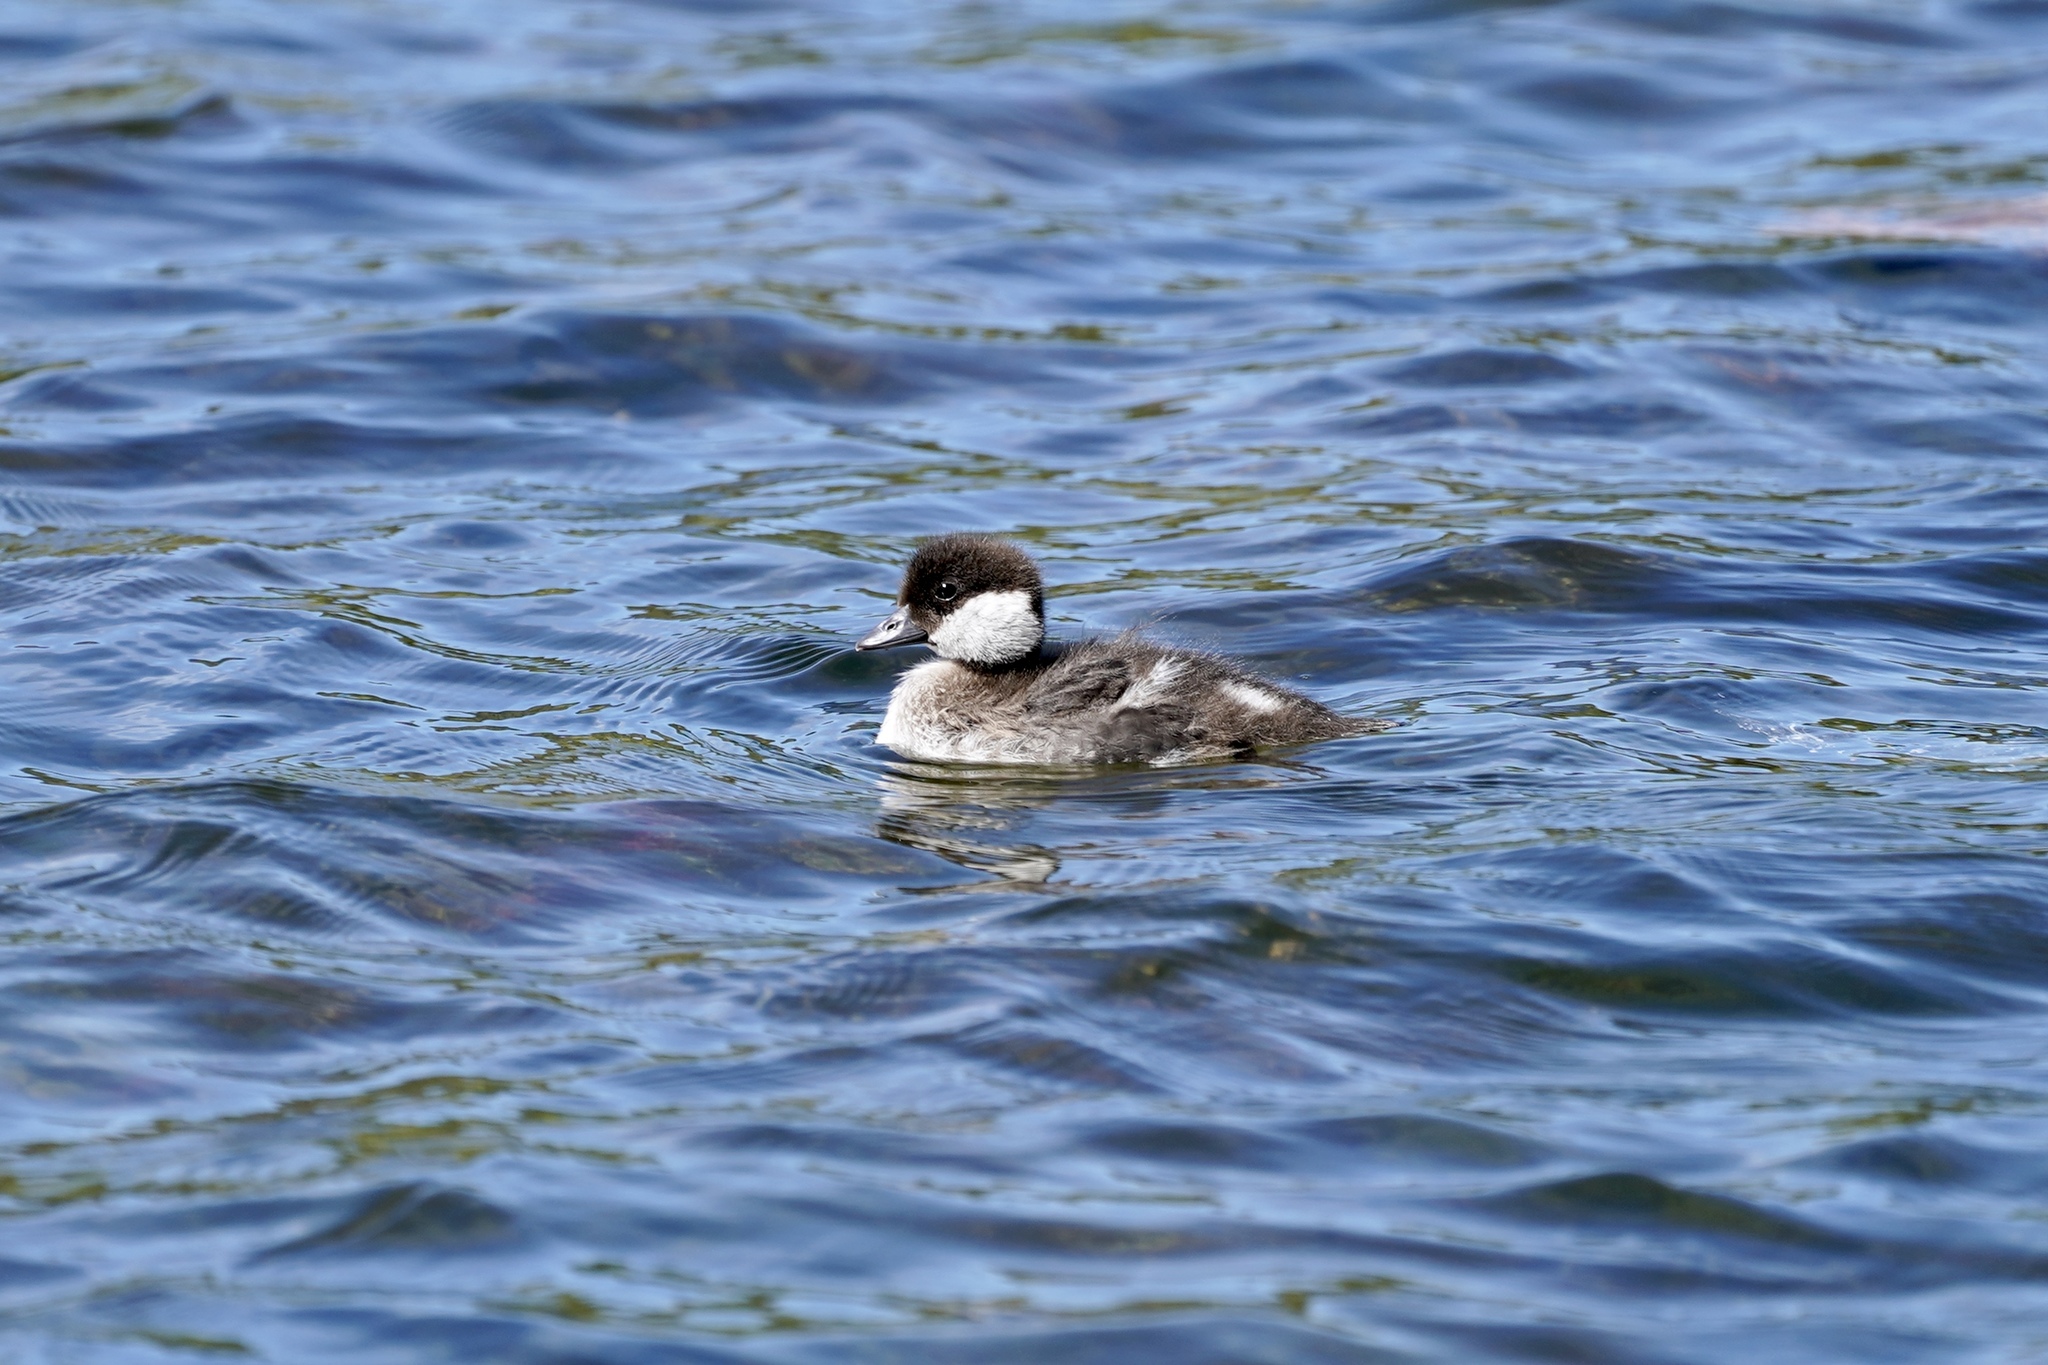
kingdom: Animalia
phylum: Chordata
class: Aves
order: Anseriformes
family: Anatidae
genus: Bucephala
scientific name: Bucephala albeola
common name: Bufflehead
